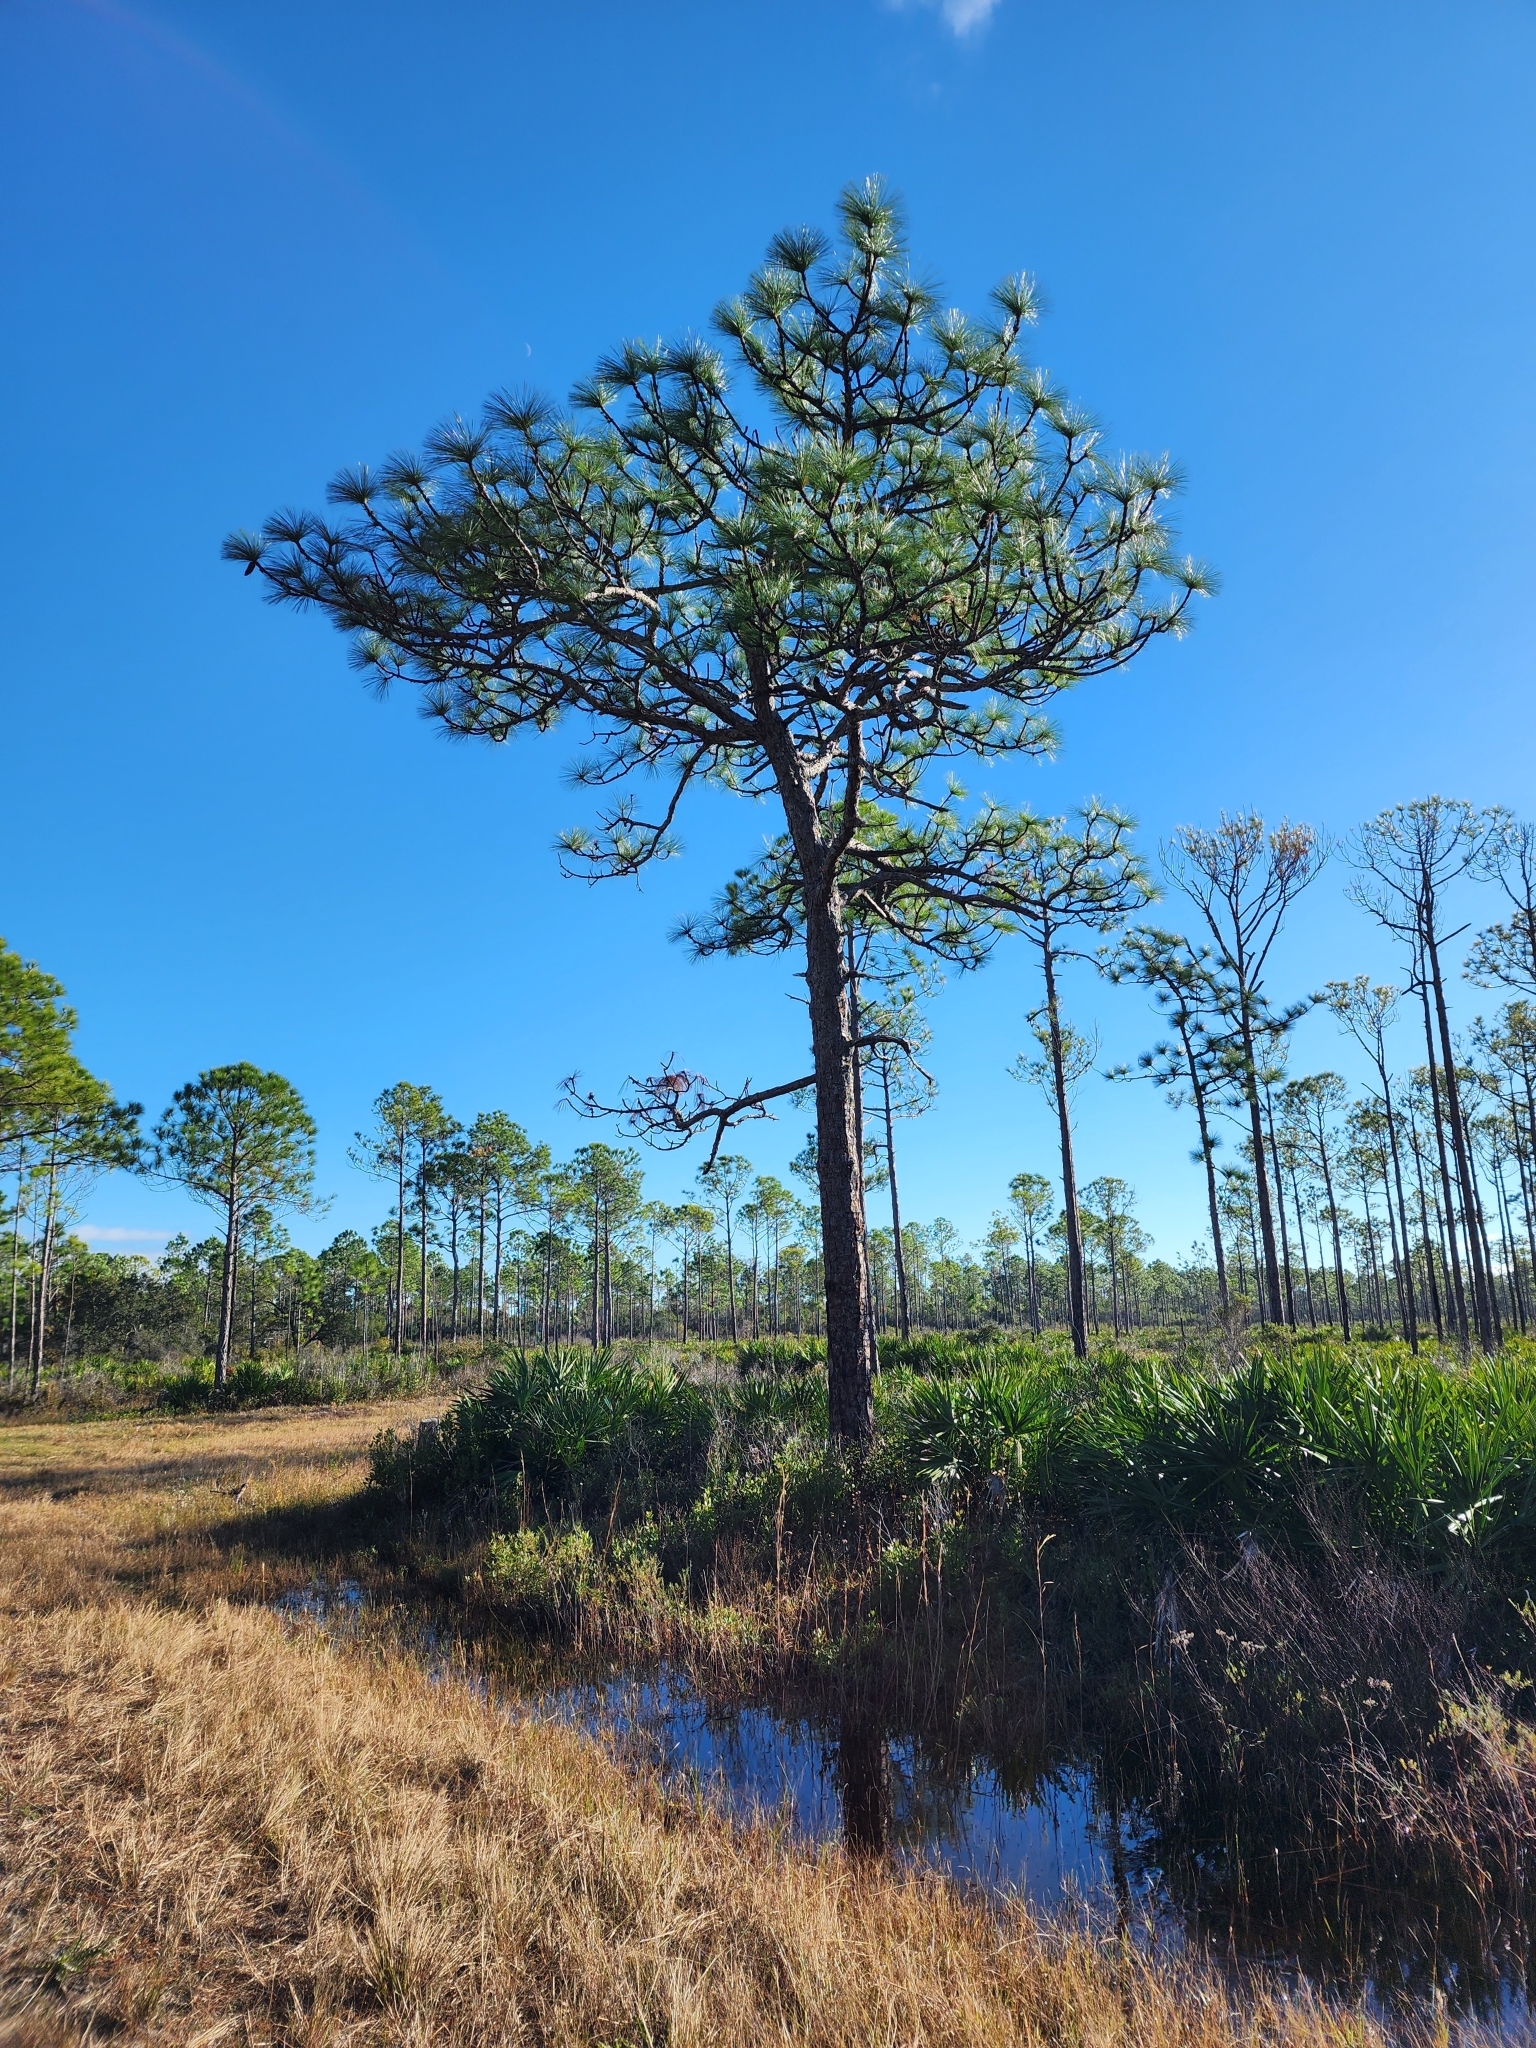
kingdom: Plantae
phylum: Tracheophyta
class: Pinopsida
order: Pinales
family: Pinaceae
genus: Pinus
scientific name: Pinus palustris
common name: Longleaf pine
